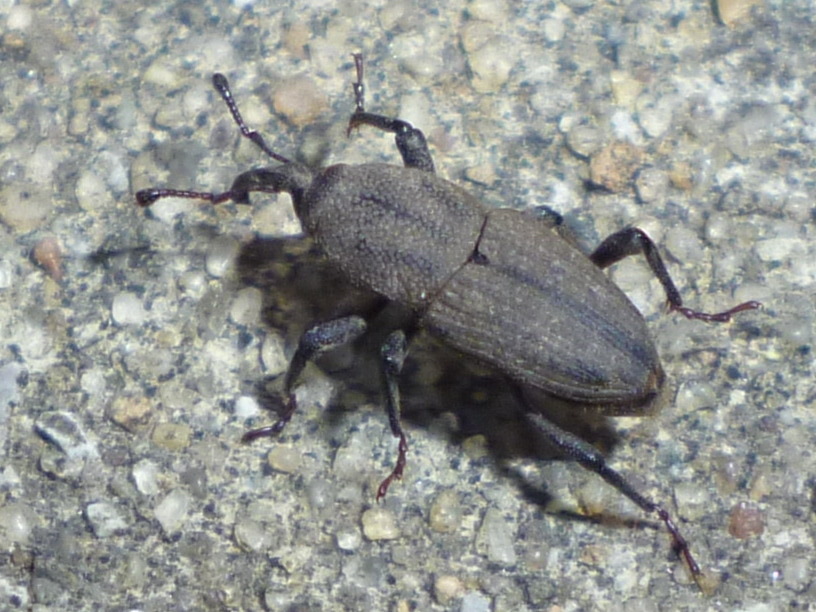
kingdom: Animalia
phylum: Arthropoda
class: Insecta
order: Coleoptera
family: Dryophthoridae
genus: Sphenophorus
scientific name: Sphenophorus interstitialis
